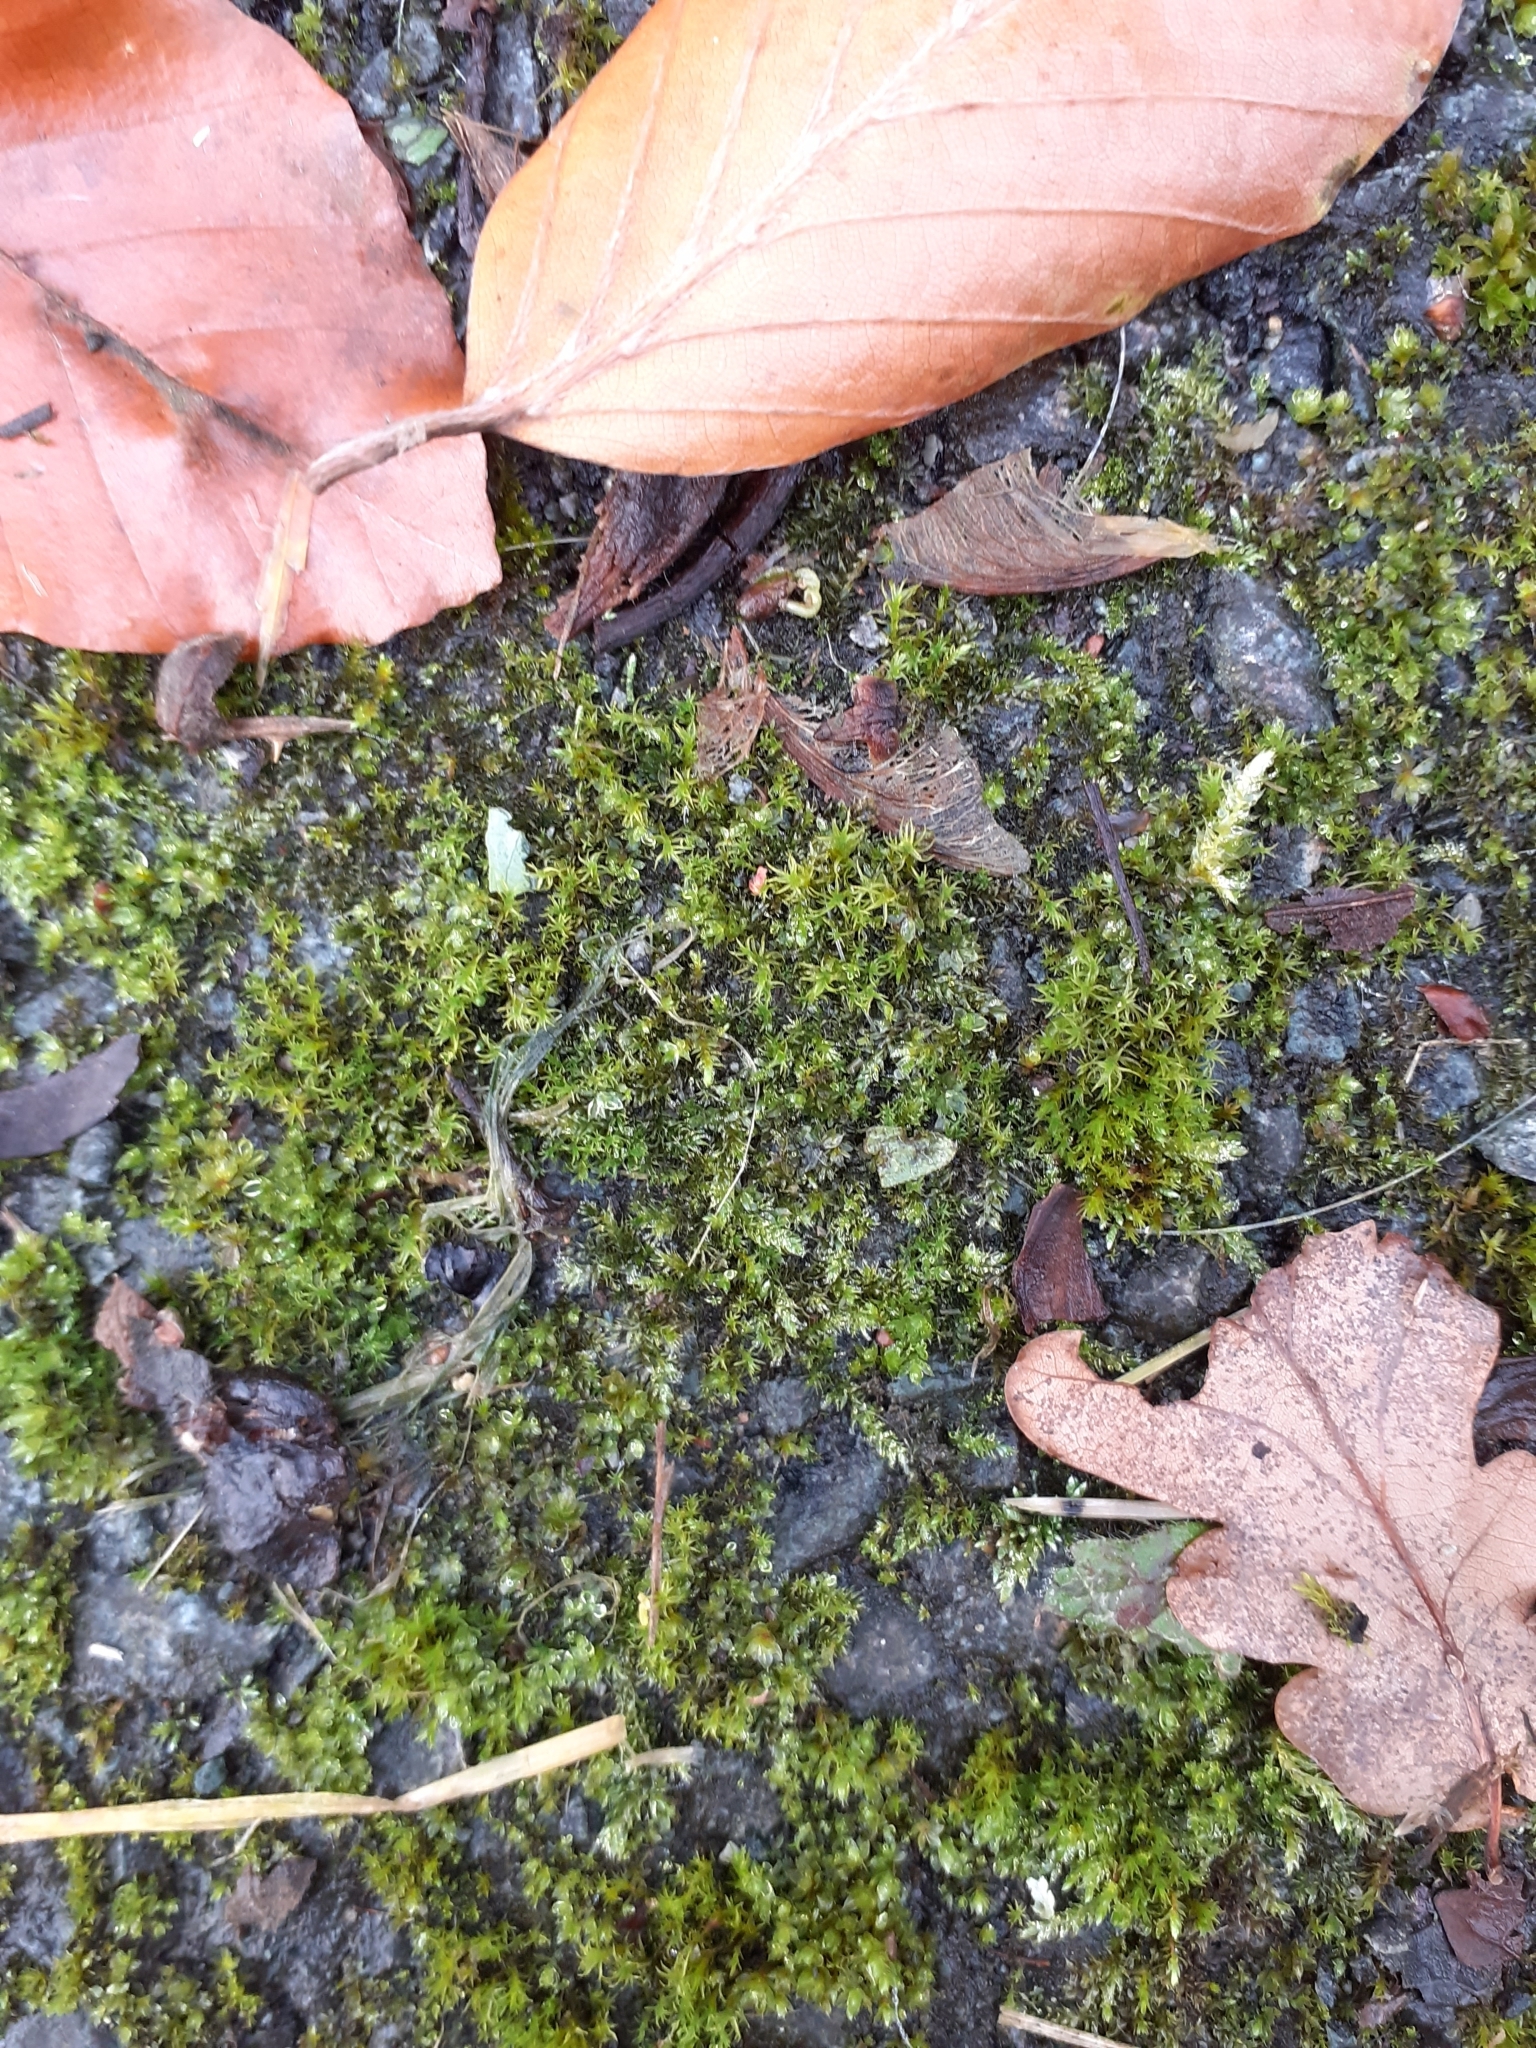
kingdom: Plantae
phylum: Bryophyta
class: Bryopsida
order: Bryales
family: Bryaceae
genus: Rosulabryum
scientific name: Rosulabryum capillare
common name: Capillary thread-moss
